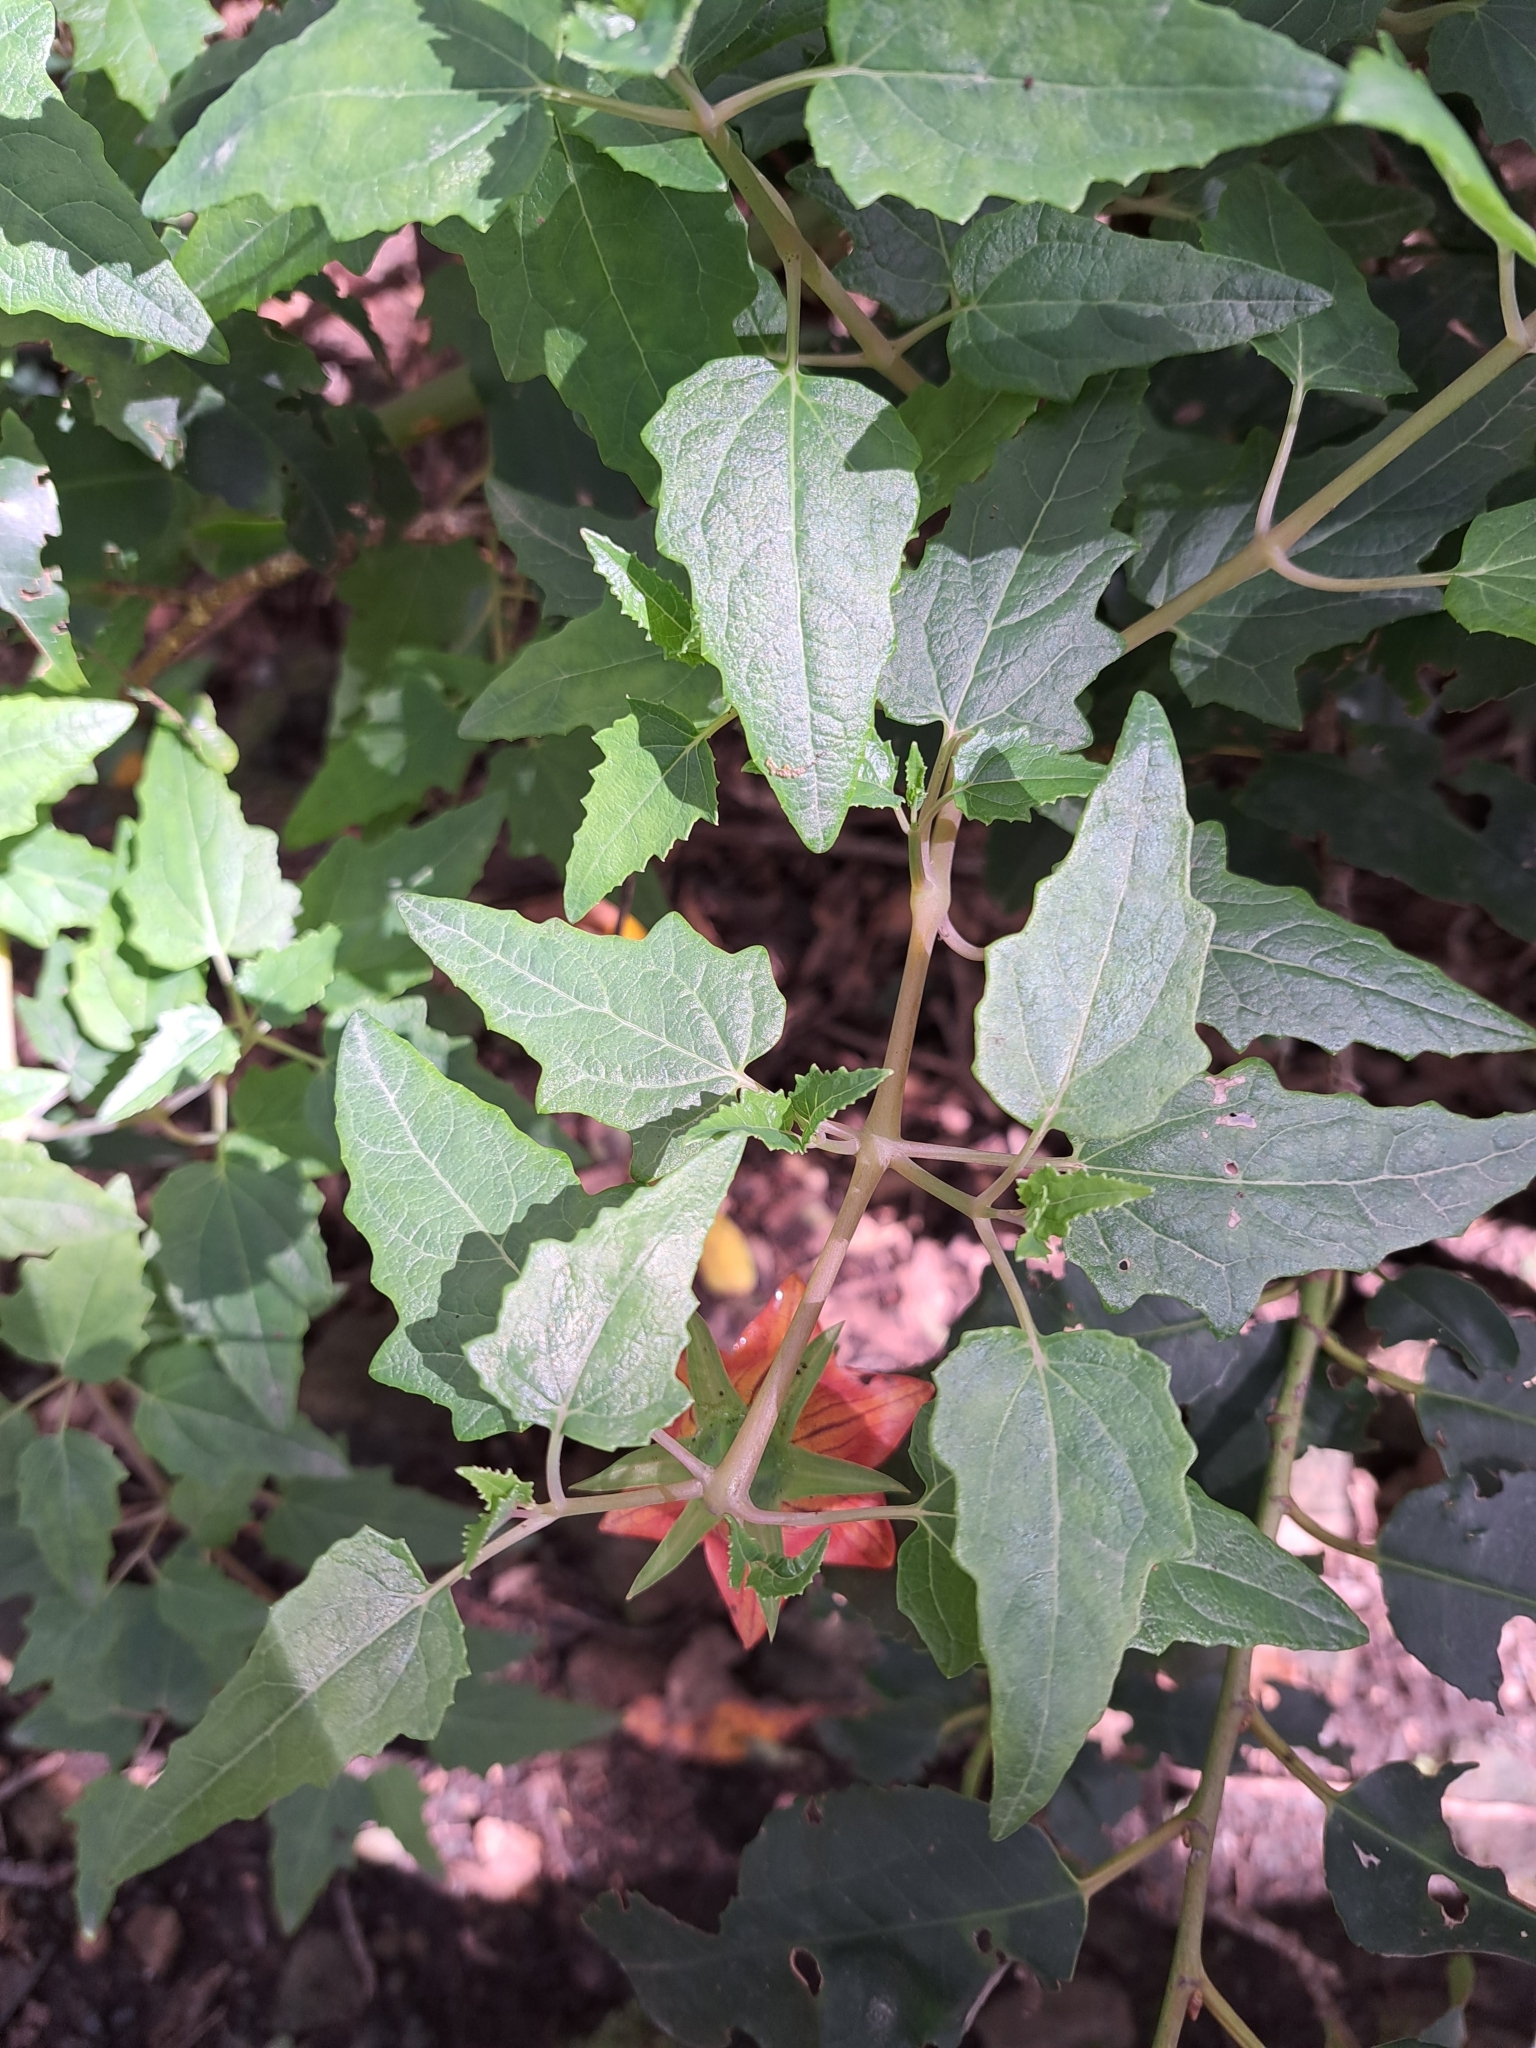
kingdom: Plantae
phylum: Tracheophyta
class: Magnoliopsida
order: Asterales
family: Campanulaceae
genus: Canarina
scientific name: Canarina canariensis
